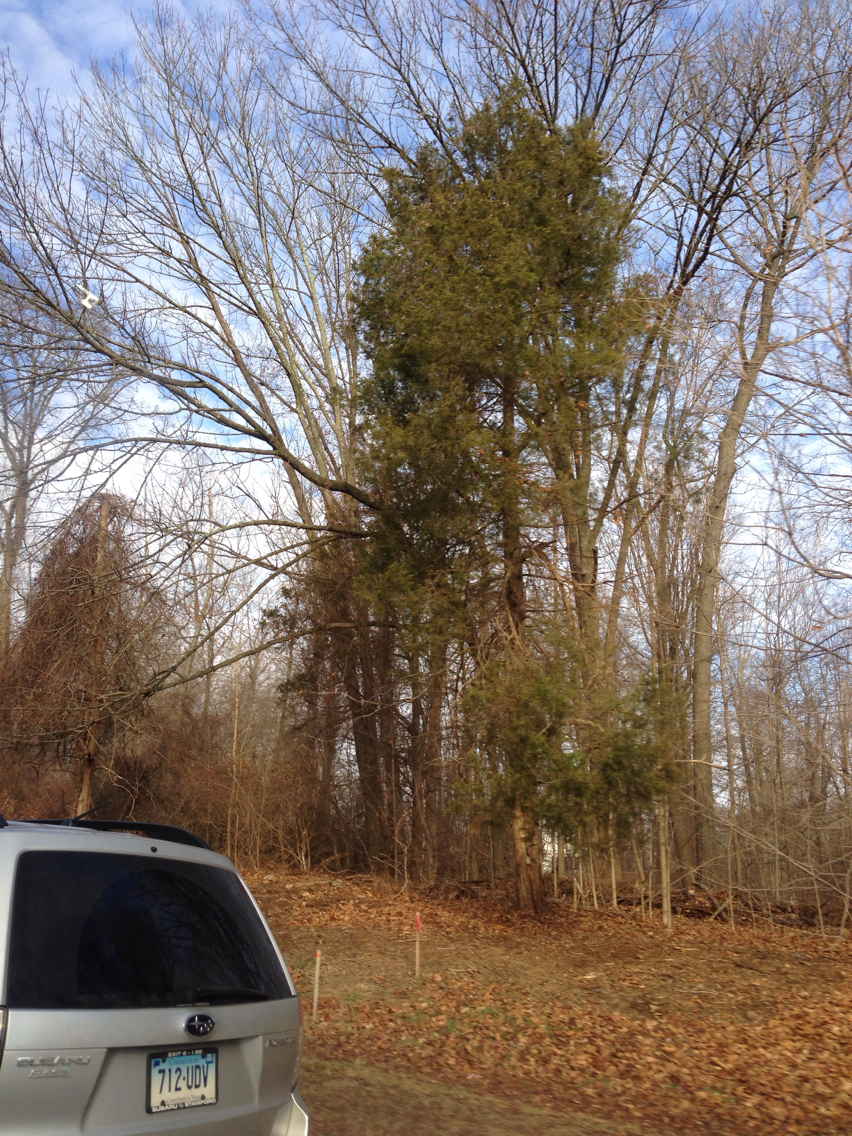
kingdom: Plantae
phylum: Tracheophyta
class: Pinopsida
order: Pinales
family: Cupressaceae
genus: Juniperus
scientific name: Juniperus virginiana
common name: Red juniper
